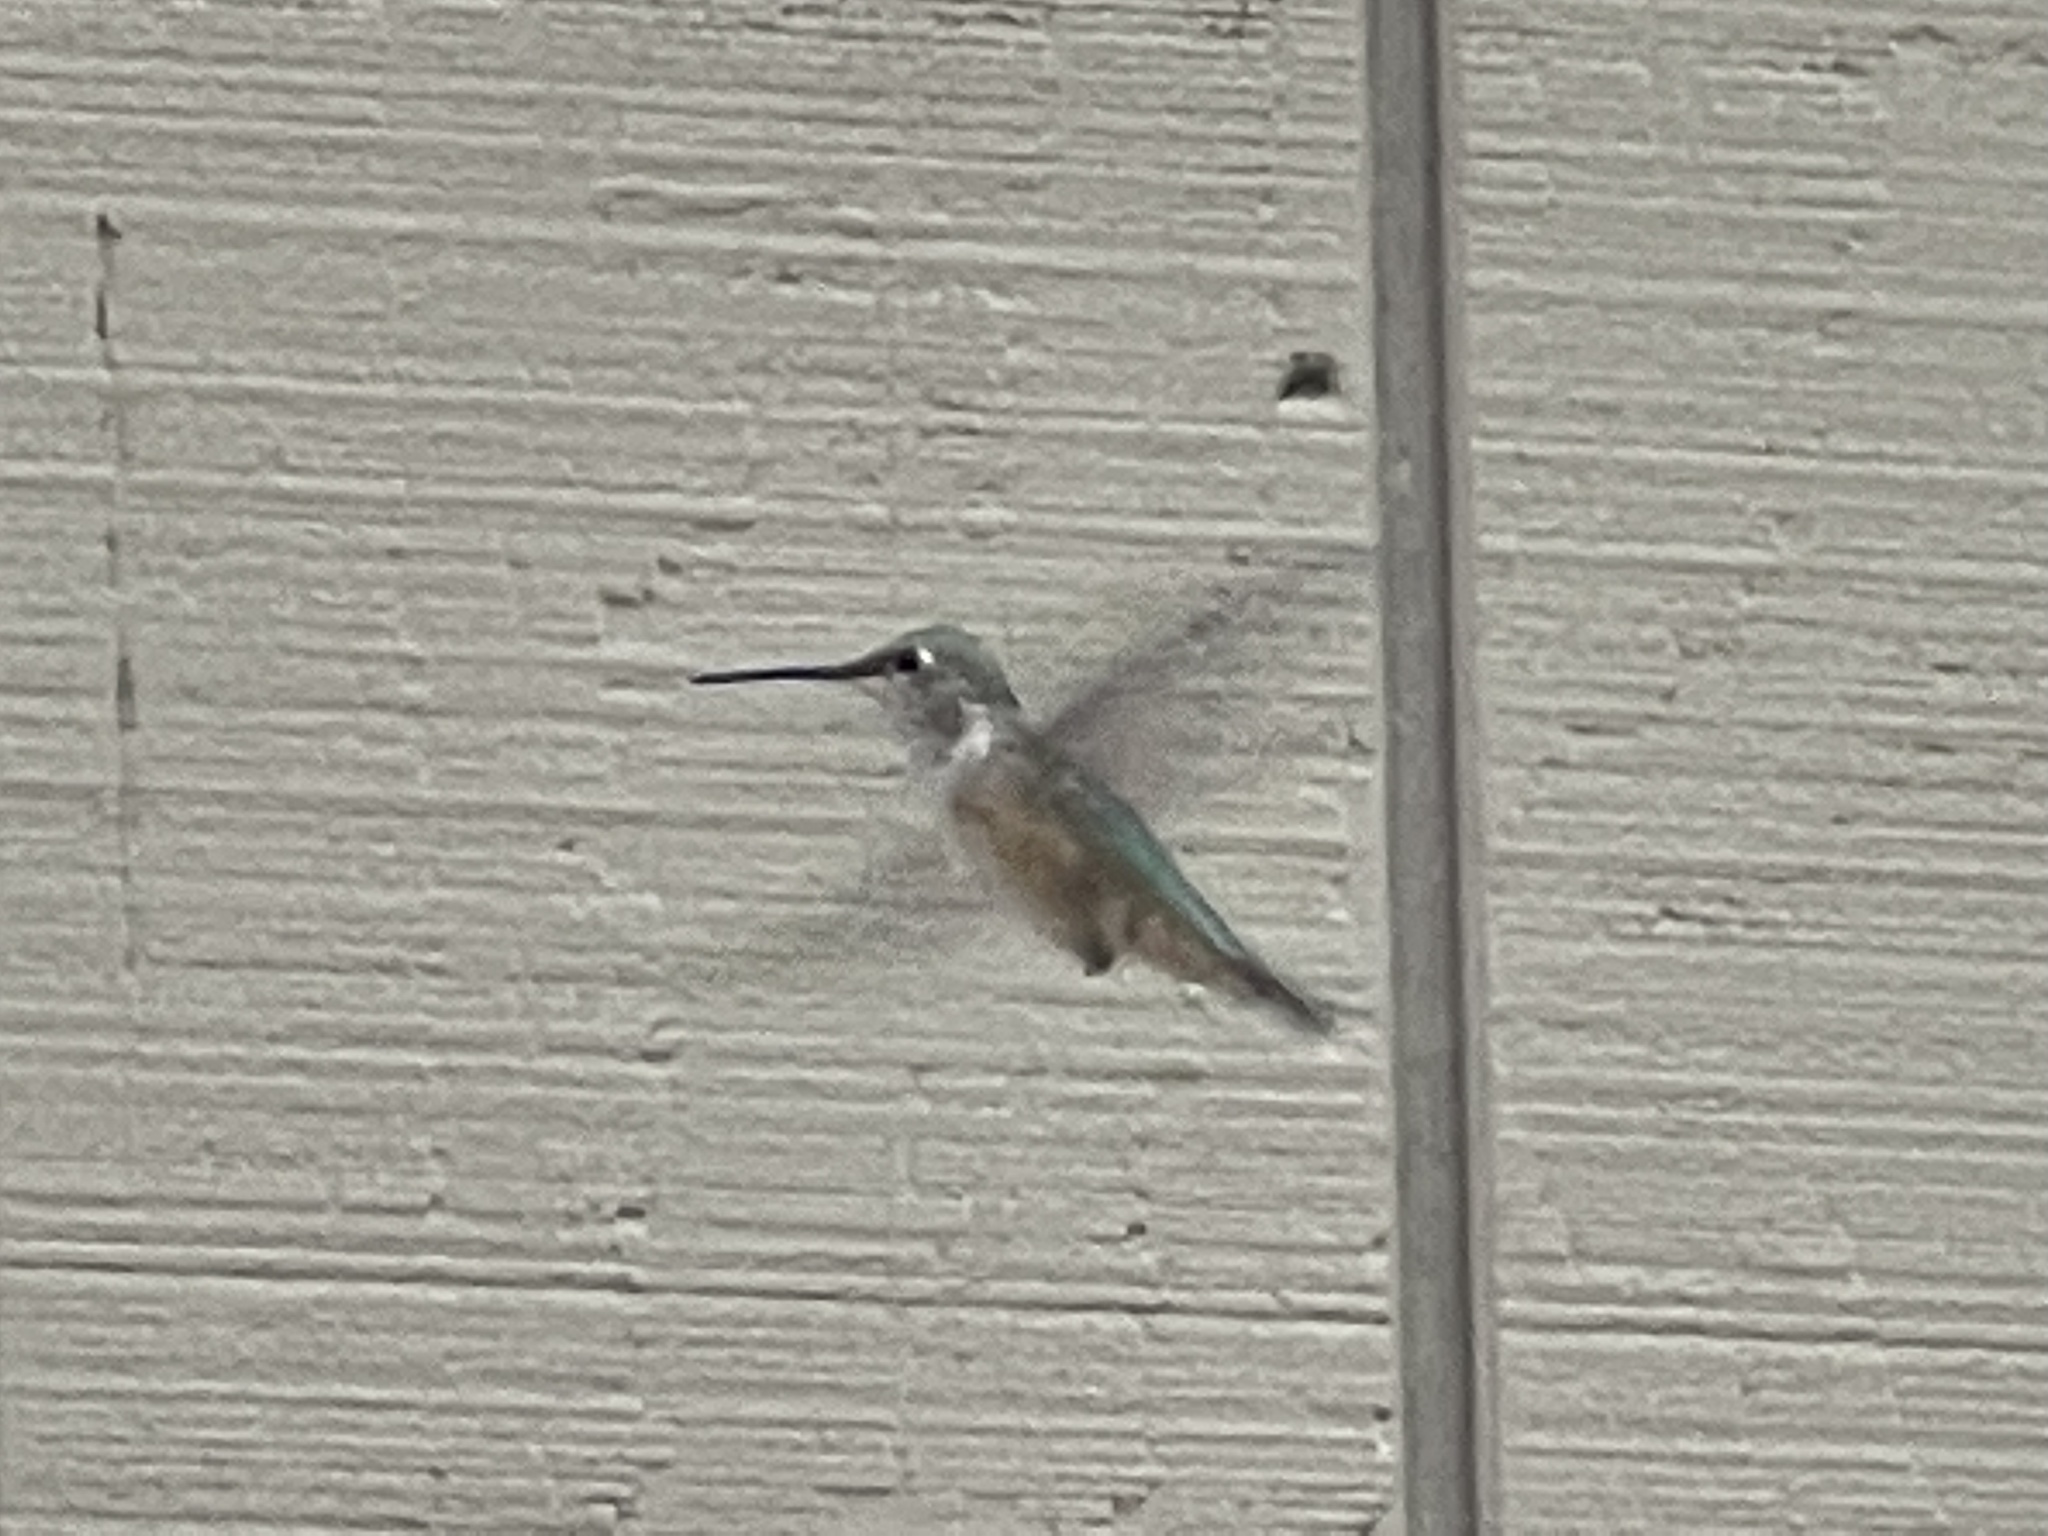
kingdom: Animalia
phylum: Chordata
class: Aves
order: Apodiformes
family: Trochilidae
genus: Selasphorus
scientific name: Selasphorus platycercus
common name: Broad-tailed hummingbird
